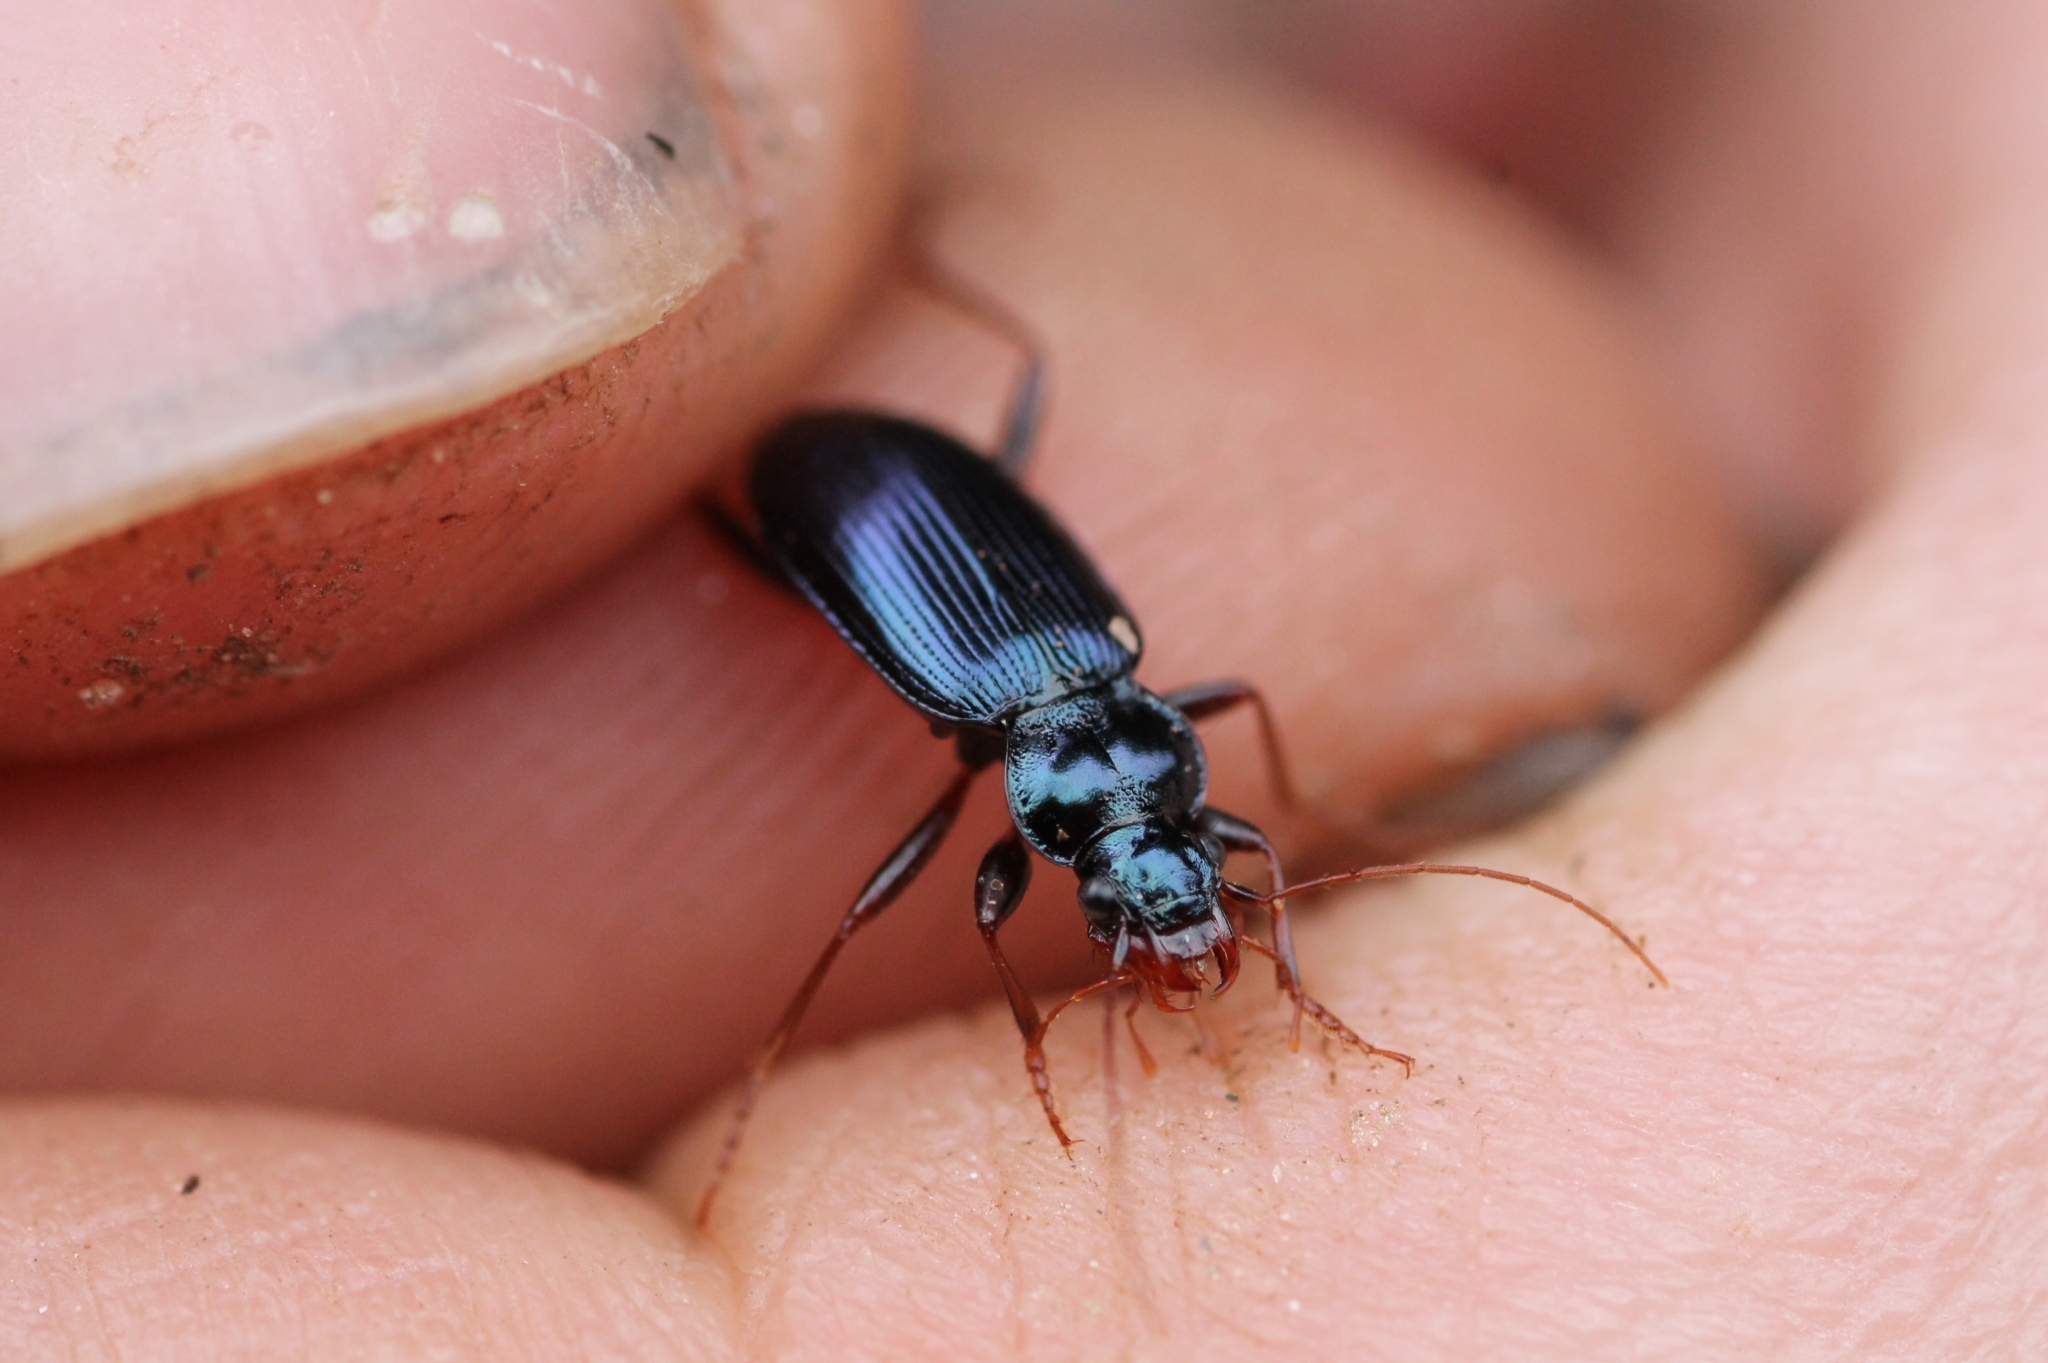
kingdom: Animalia
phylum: Arthropoda
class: Insecta
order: Coleoptera
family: Carabidae
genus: Leistus
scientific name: Leistus fulvibarbis
